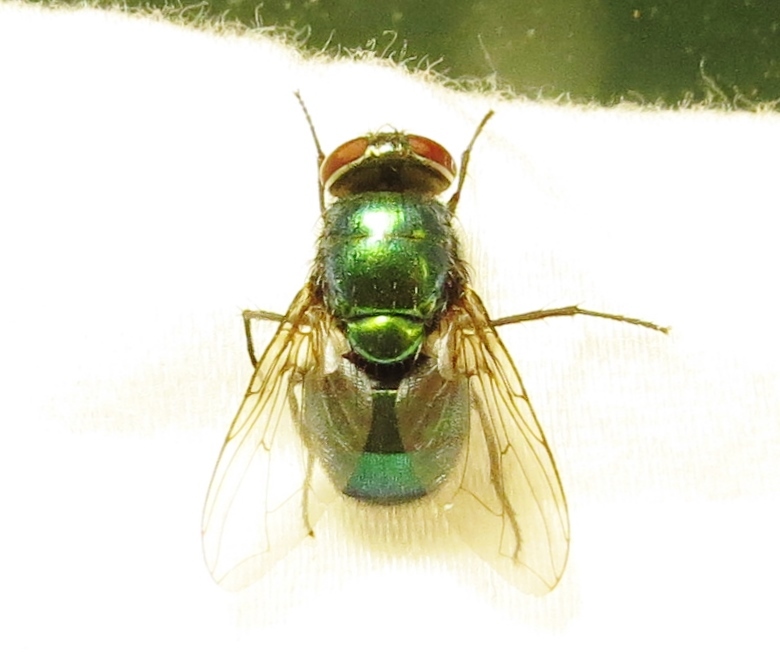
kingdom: Animalia
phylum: Arthropoda
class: Insecta
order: Diptera
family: Calliphoridae
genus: Lucilia
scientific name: Lucilia caeruleiviridis
